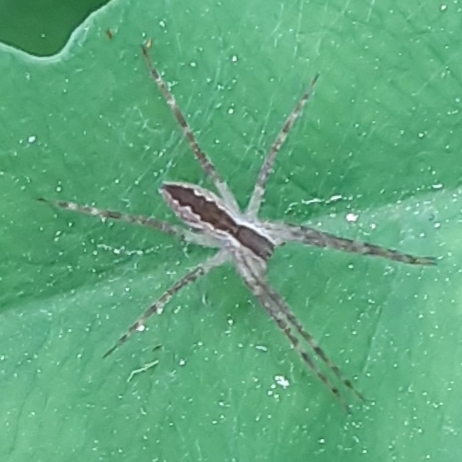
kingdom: Animalia
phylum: Arthropoda
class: Arachnida
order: Araneae
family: Pisauridae
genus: Pisaurina
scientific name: Pisaurina mira
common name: American nursery web spider
